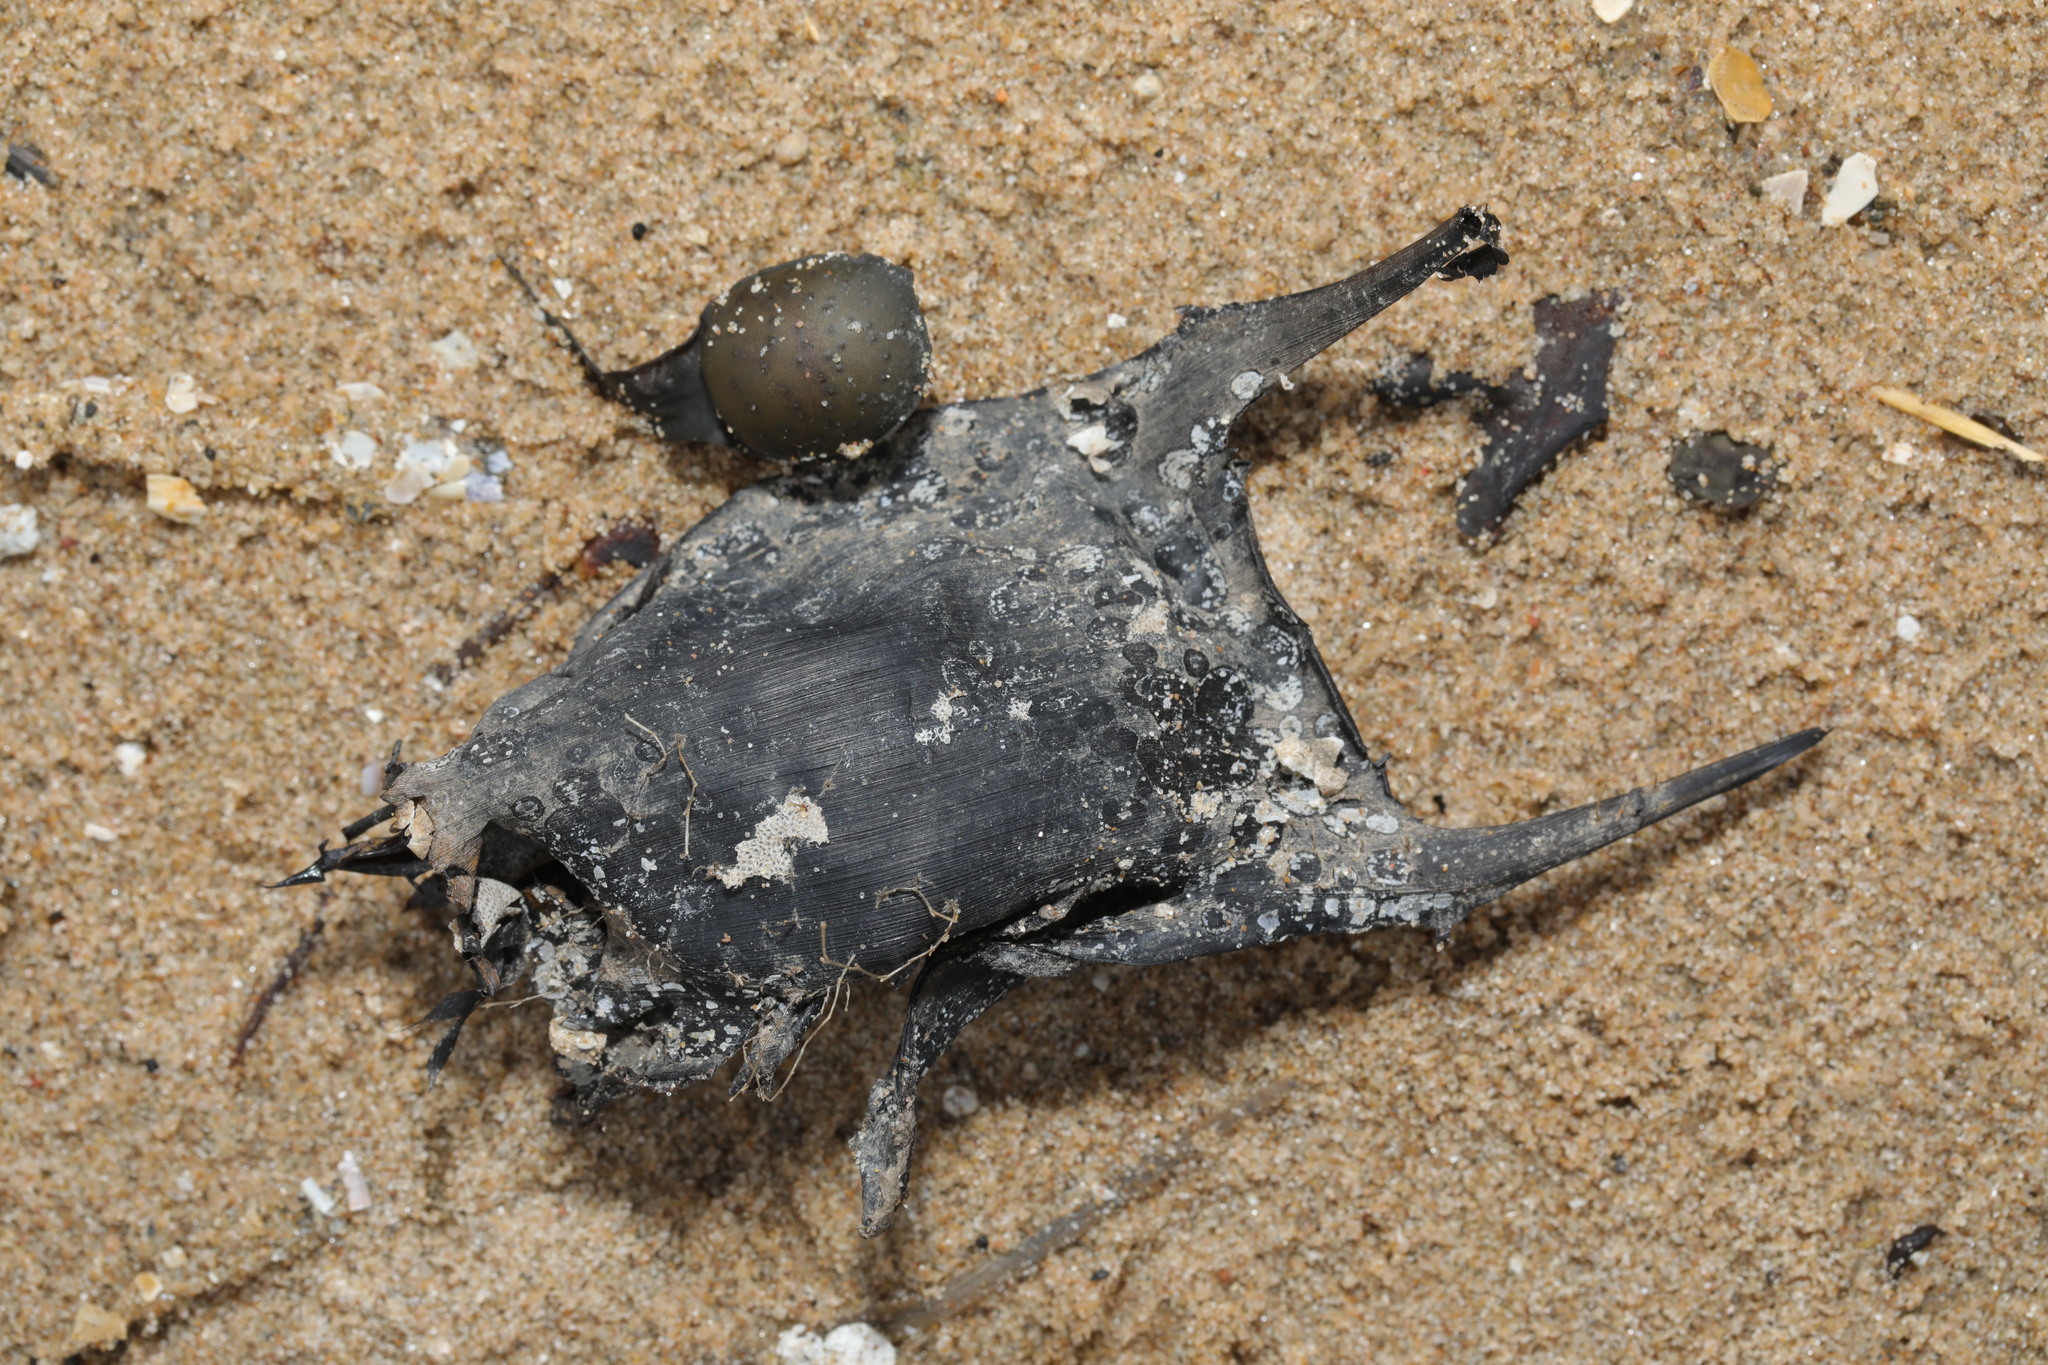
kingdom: Animalia
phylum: Chordata
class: Elasmobranchii
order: Rajiformes
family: Rajidae
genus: Raja
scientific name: Raja clavata
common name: Thornback ray
